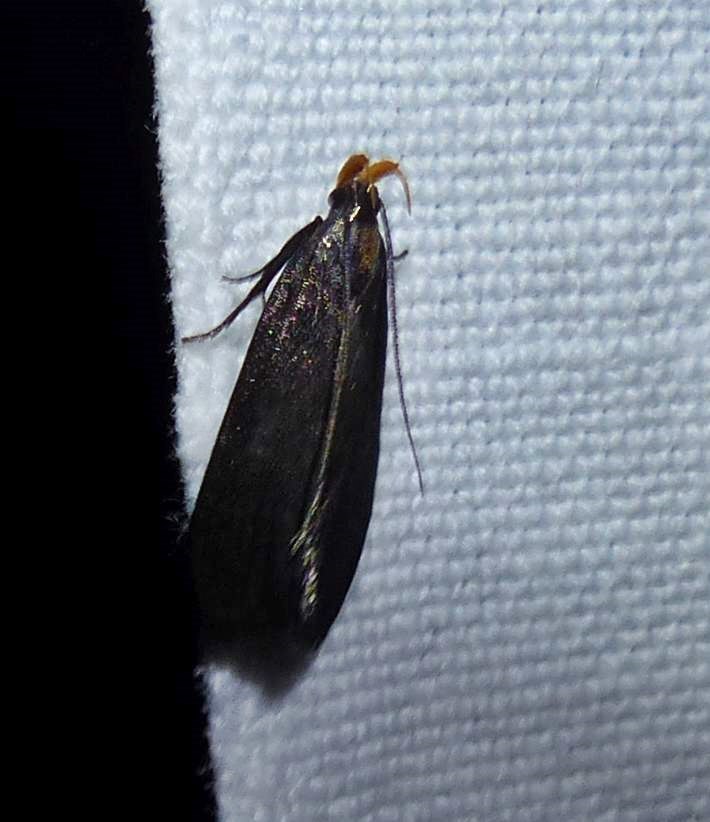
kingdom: Animalia
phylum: Arthropoda
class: Insecta
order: Lepidoptera
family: Gelechiidae
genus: Dichomeris
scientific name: Dichomeris purpureofusca
